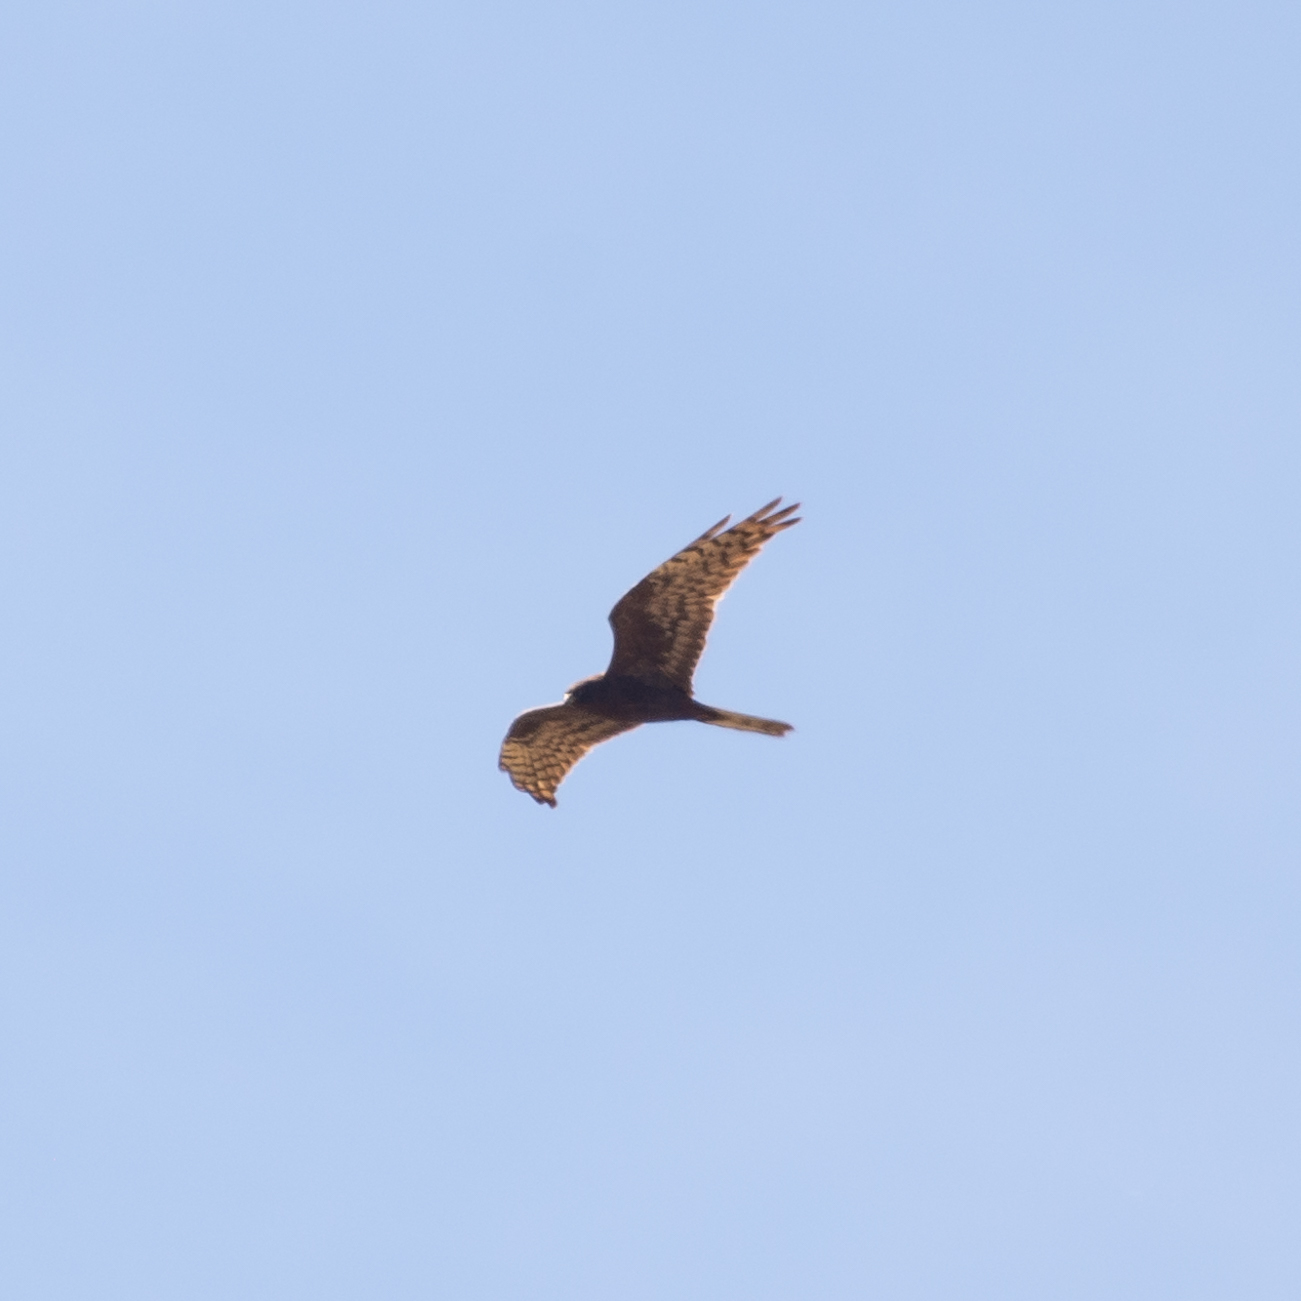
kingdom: Animalia
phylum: Chordata
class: Aves
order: Accipitriformes
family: Accipitridae
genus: Circus
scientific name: Circus pygargus
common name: Montagu's harrier
